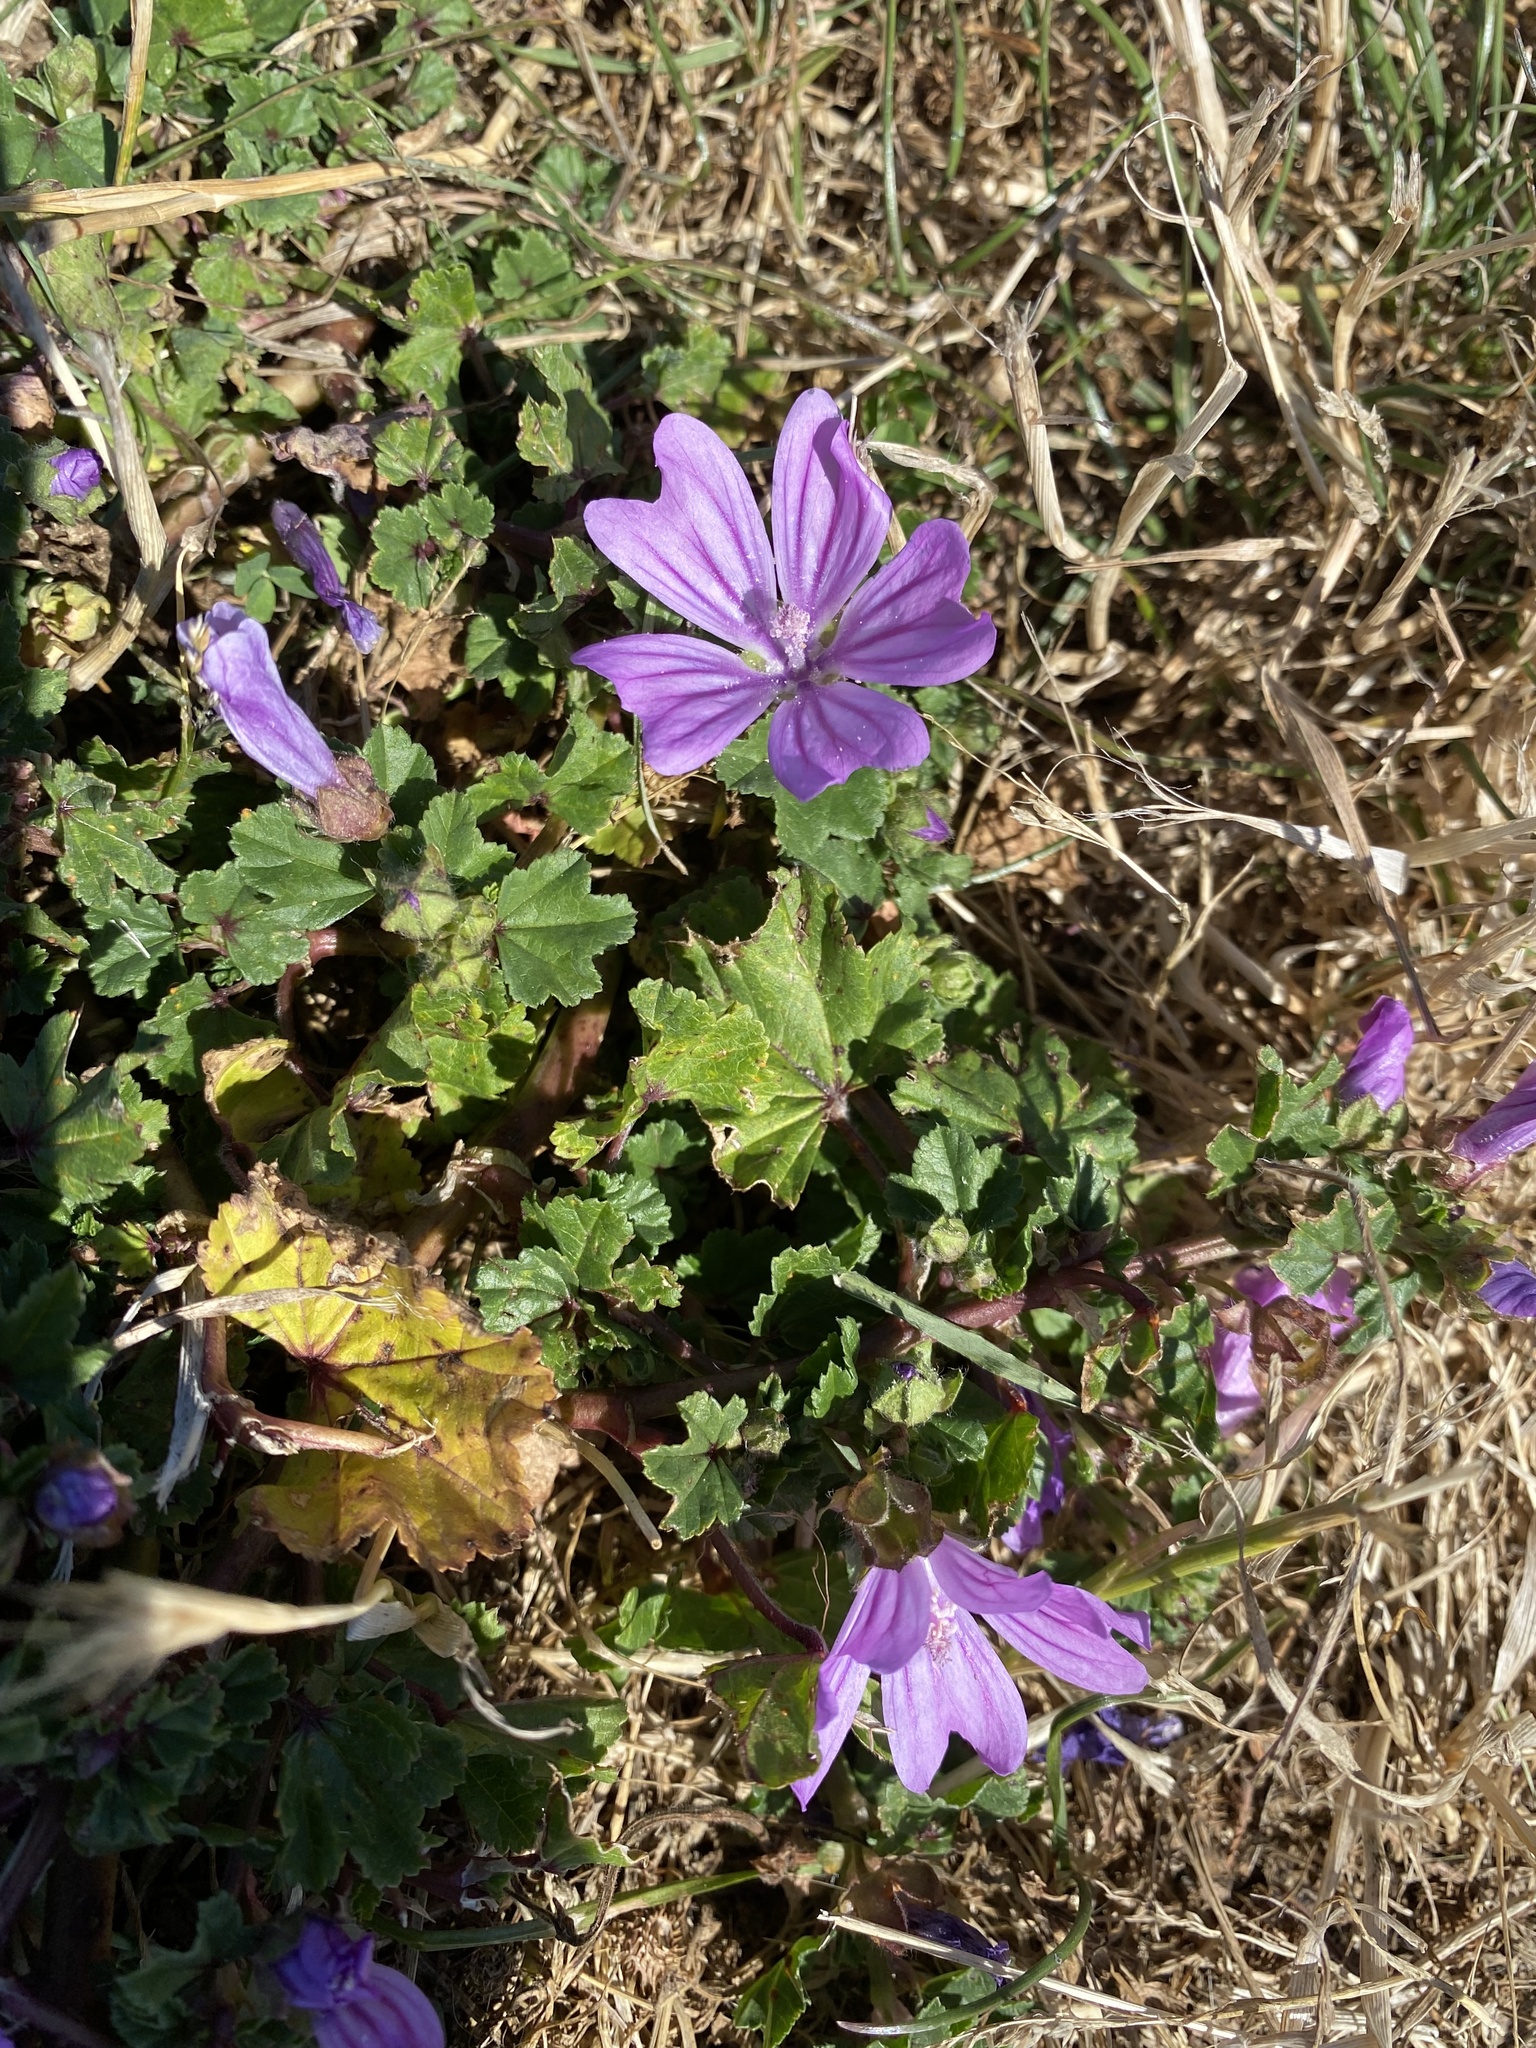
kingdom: Plantae
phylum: Tracheophyta
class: Magnoliopsida
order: Malvales
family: Malvaceae
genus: Malva
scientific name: Malva sylvestris
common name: Common mallow
